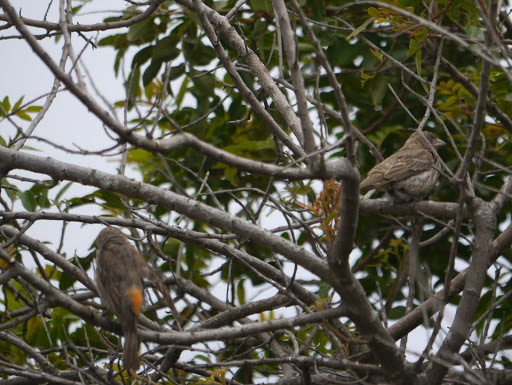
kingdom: Animalia
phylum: Chordata
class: Aves
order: Passeriformes
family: Fringillidae
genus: Haemorhous
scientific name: Haemorhous mexicanus
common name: House finch
